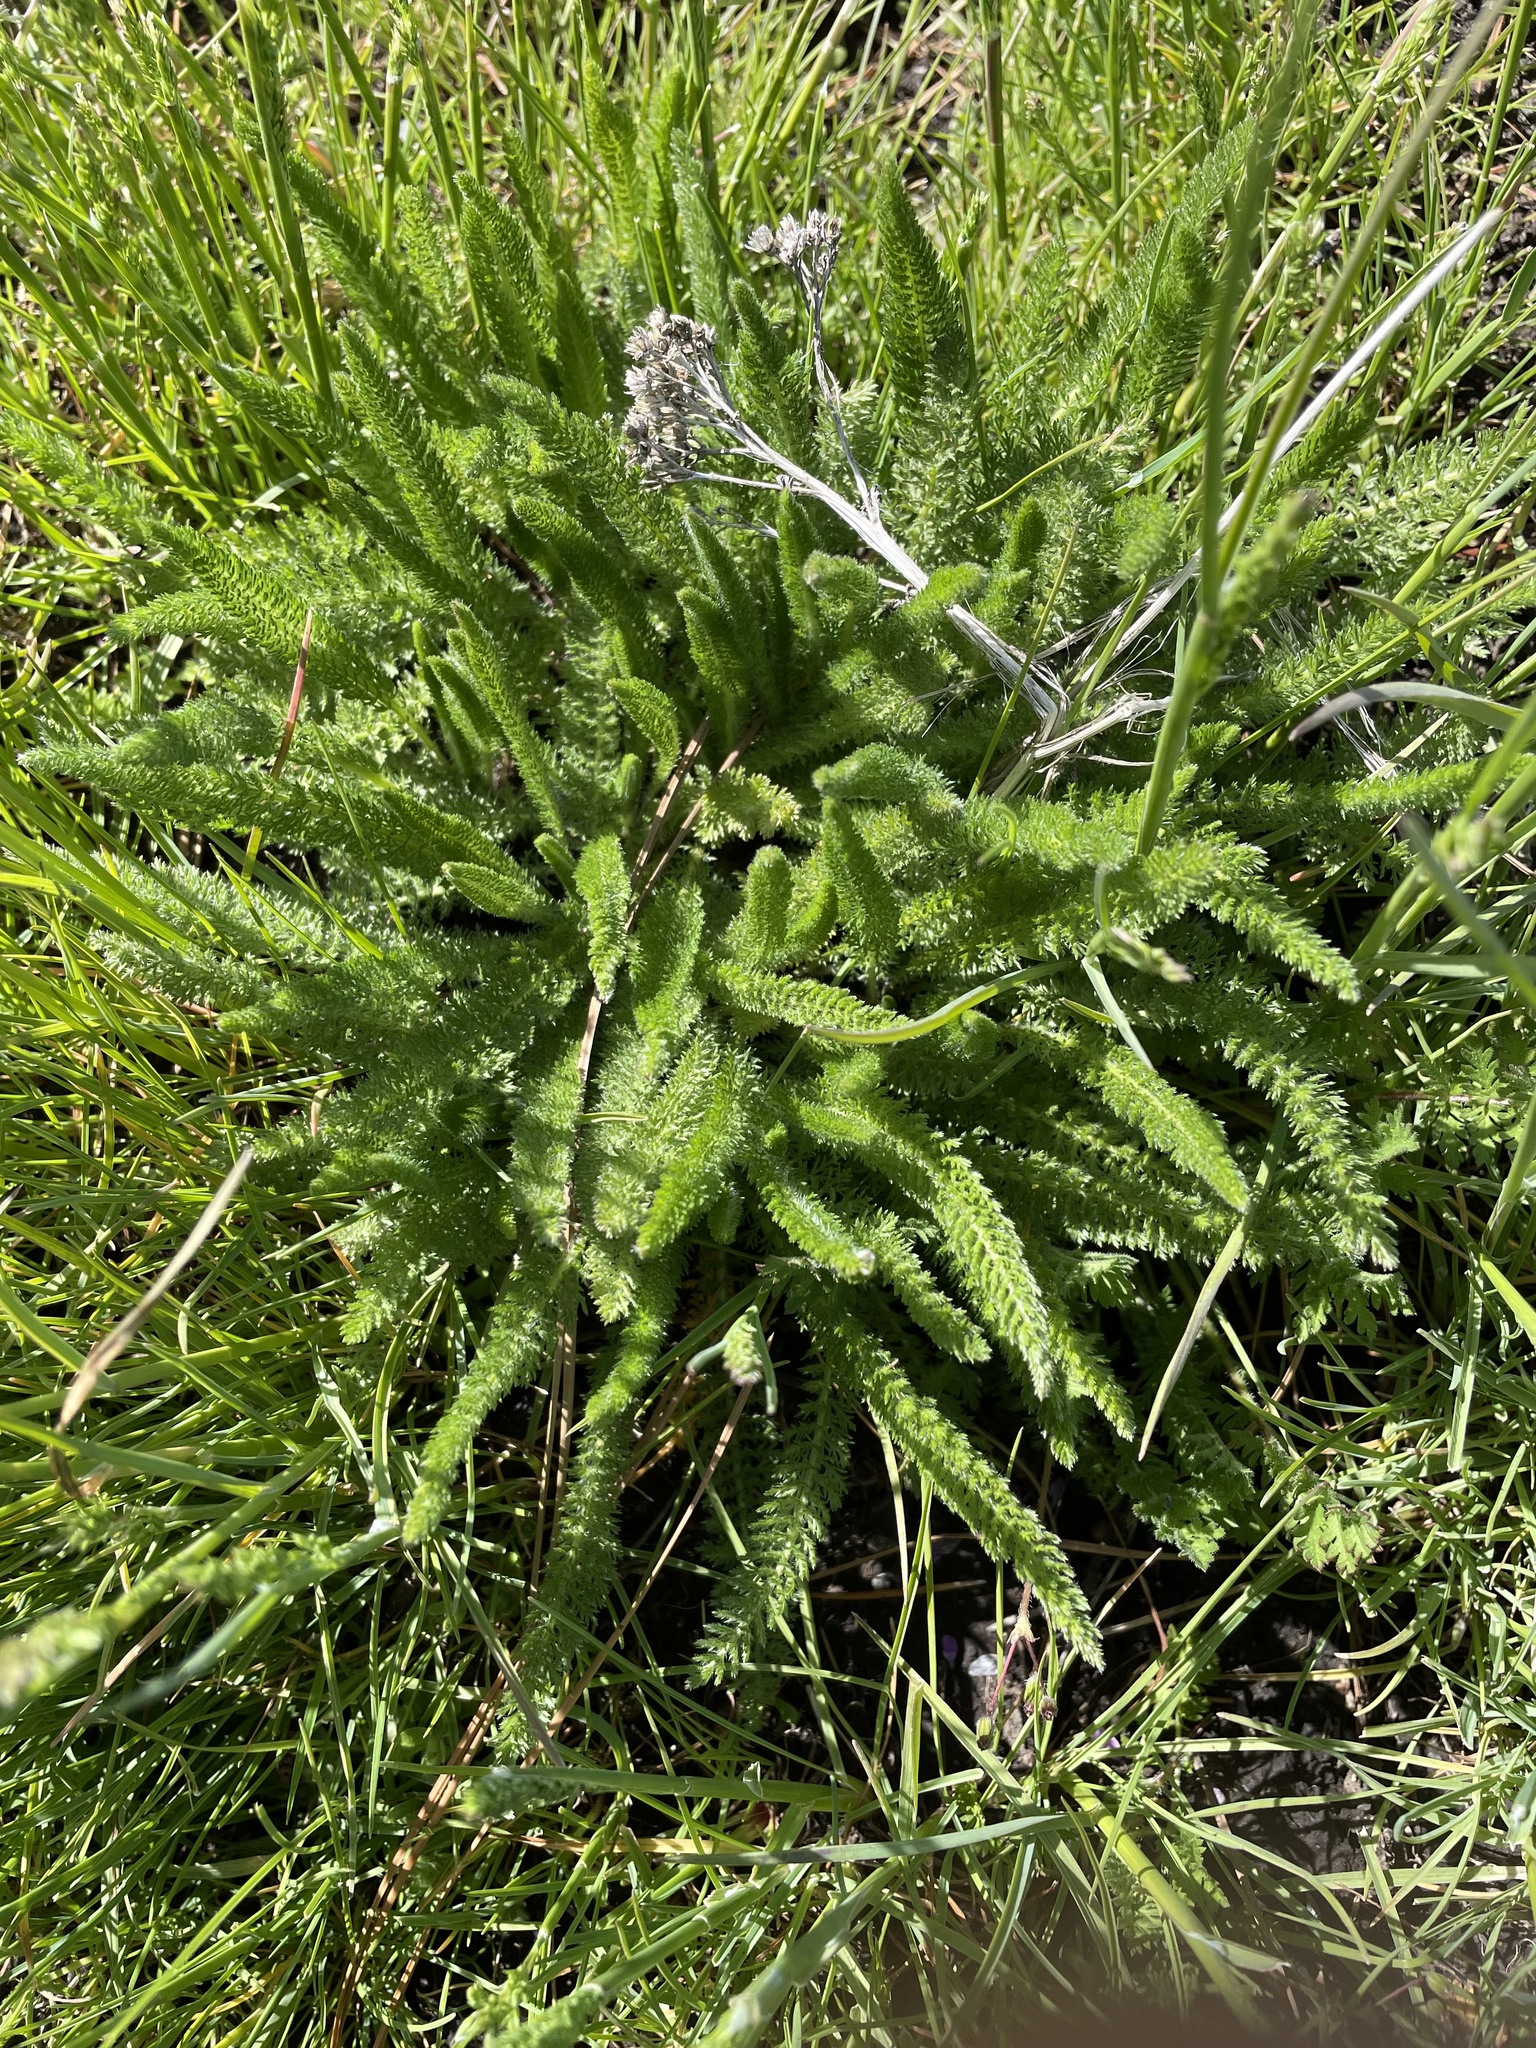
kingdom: Plantae
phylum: Tracheophyta
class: Magnoliopsida
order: Asterales
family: Asteraceae
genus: Achillea
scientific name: Achillea millefolium
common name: Yarrow
